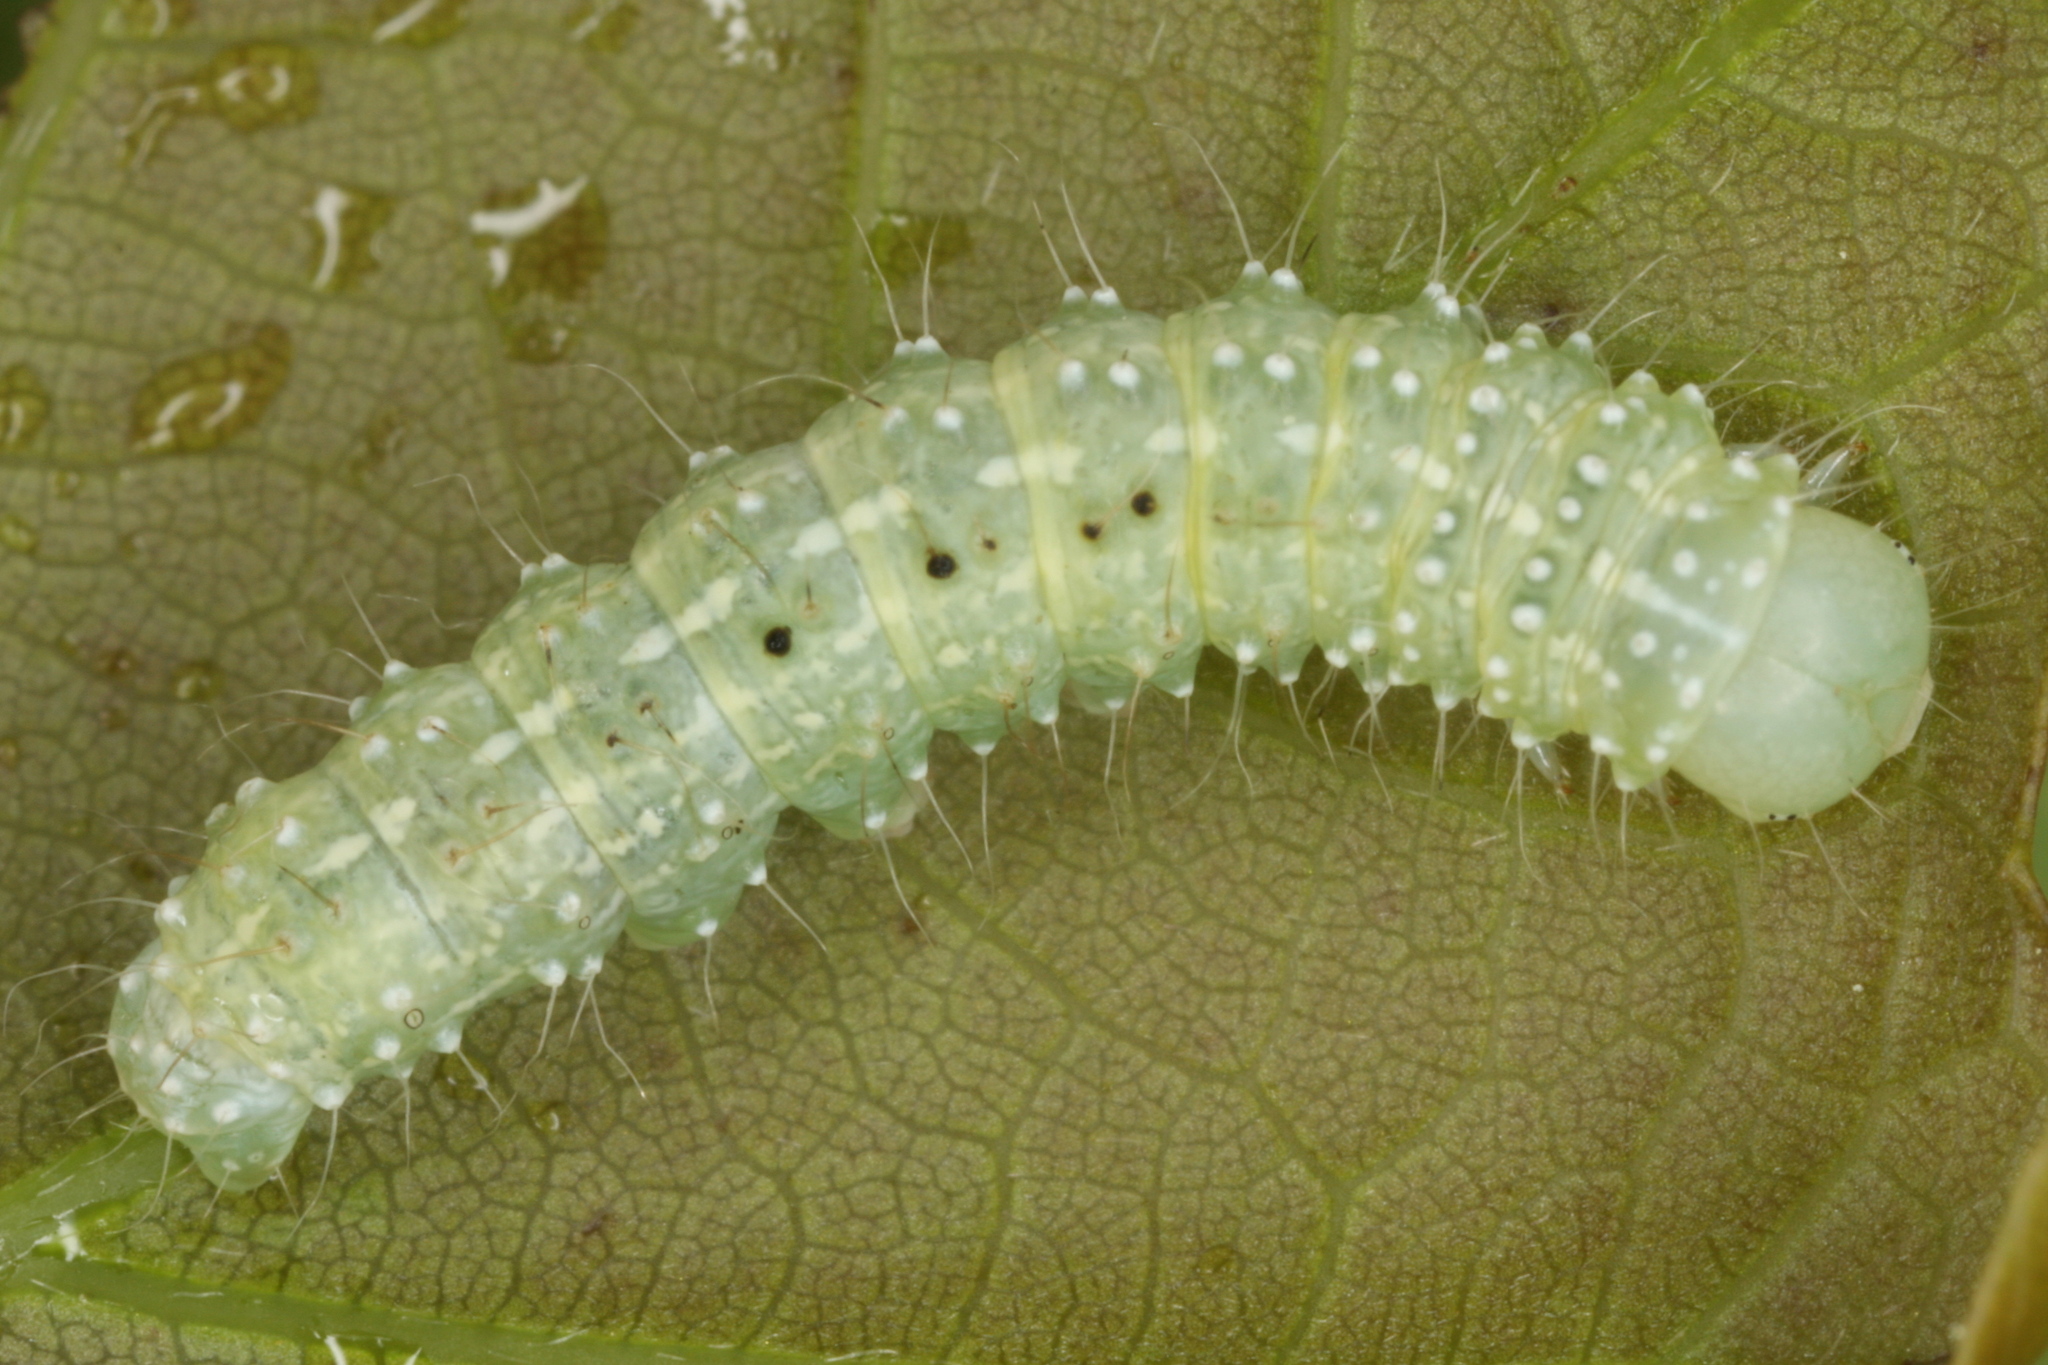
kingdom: Animalia
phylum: Arthropoda
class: Insecta
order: Lepidoptera
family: Noctuidae
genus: Lithophane
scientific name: Lithophane ornitopus
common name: Grey shoulder-knot
